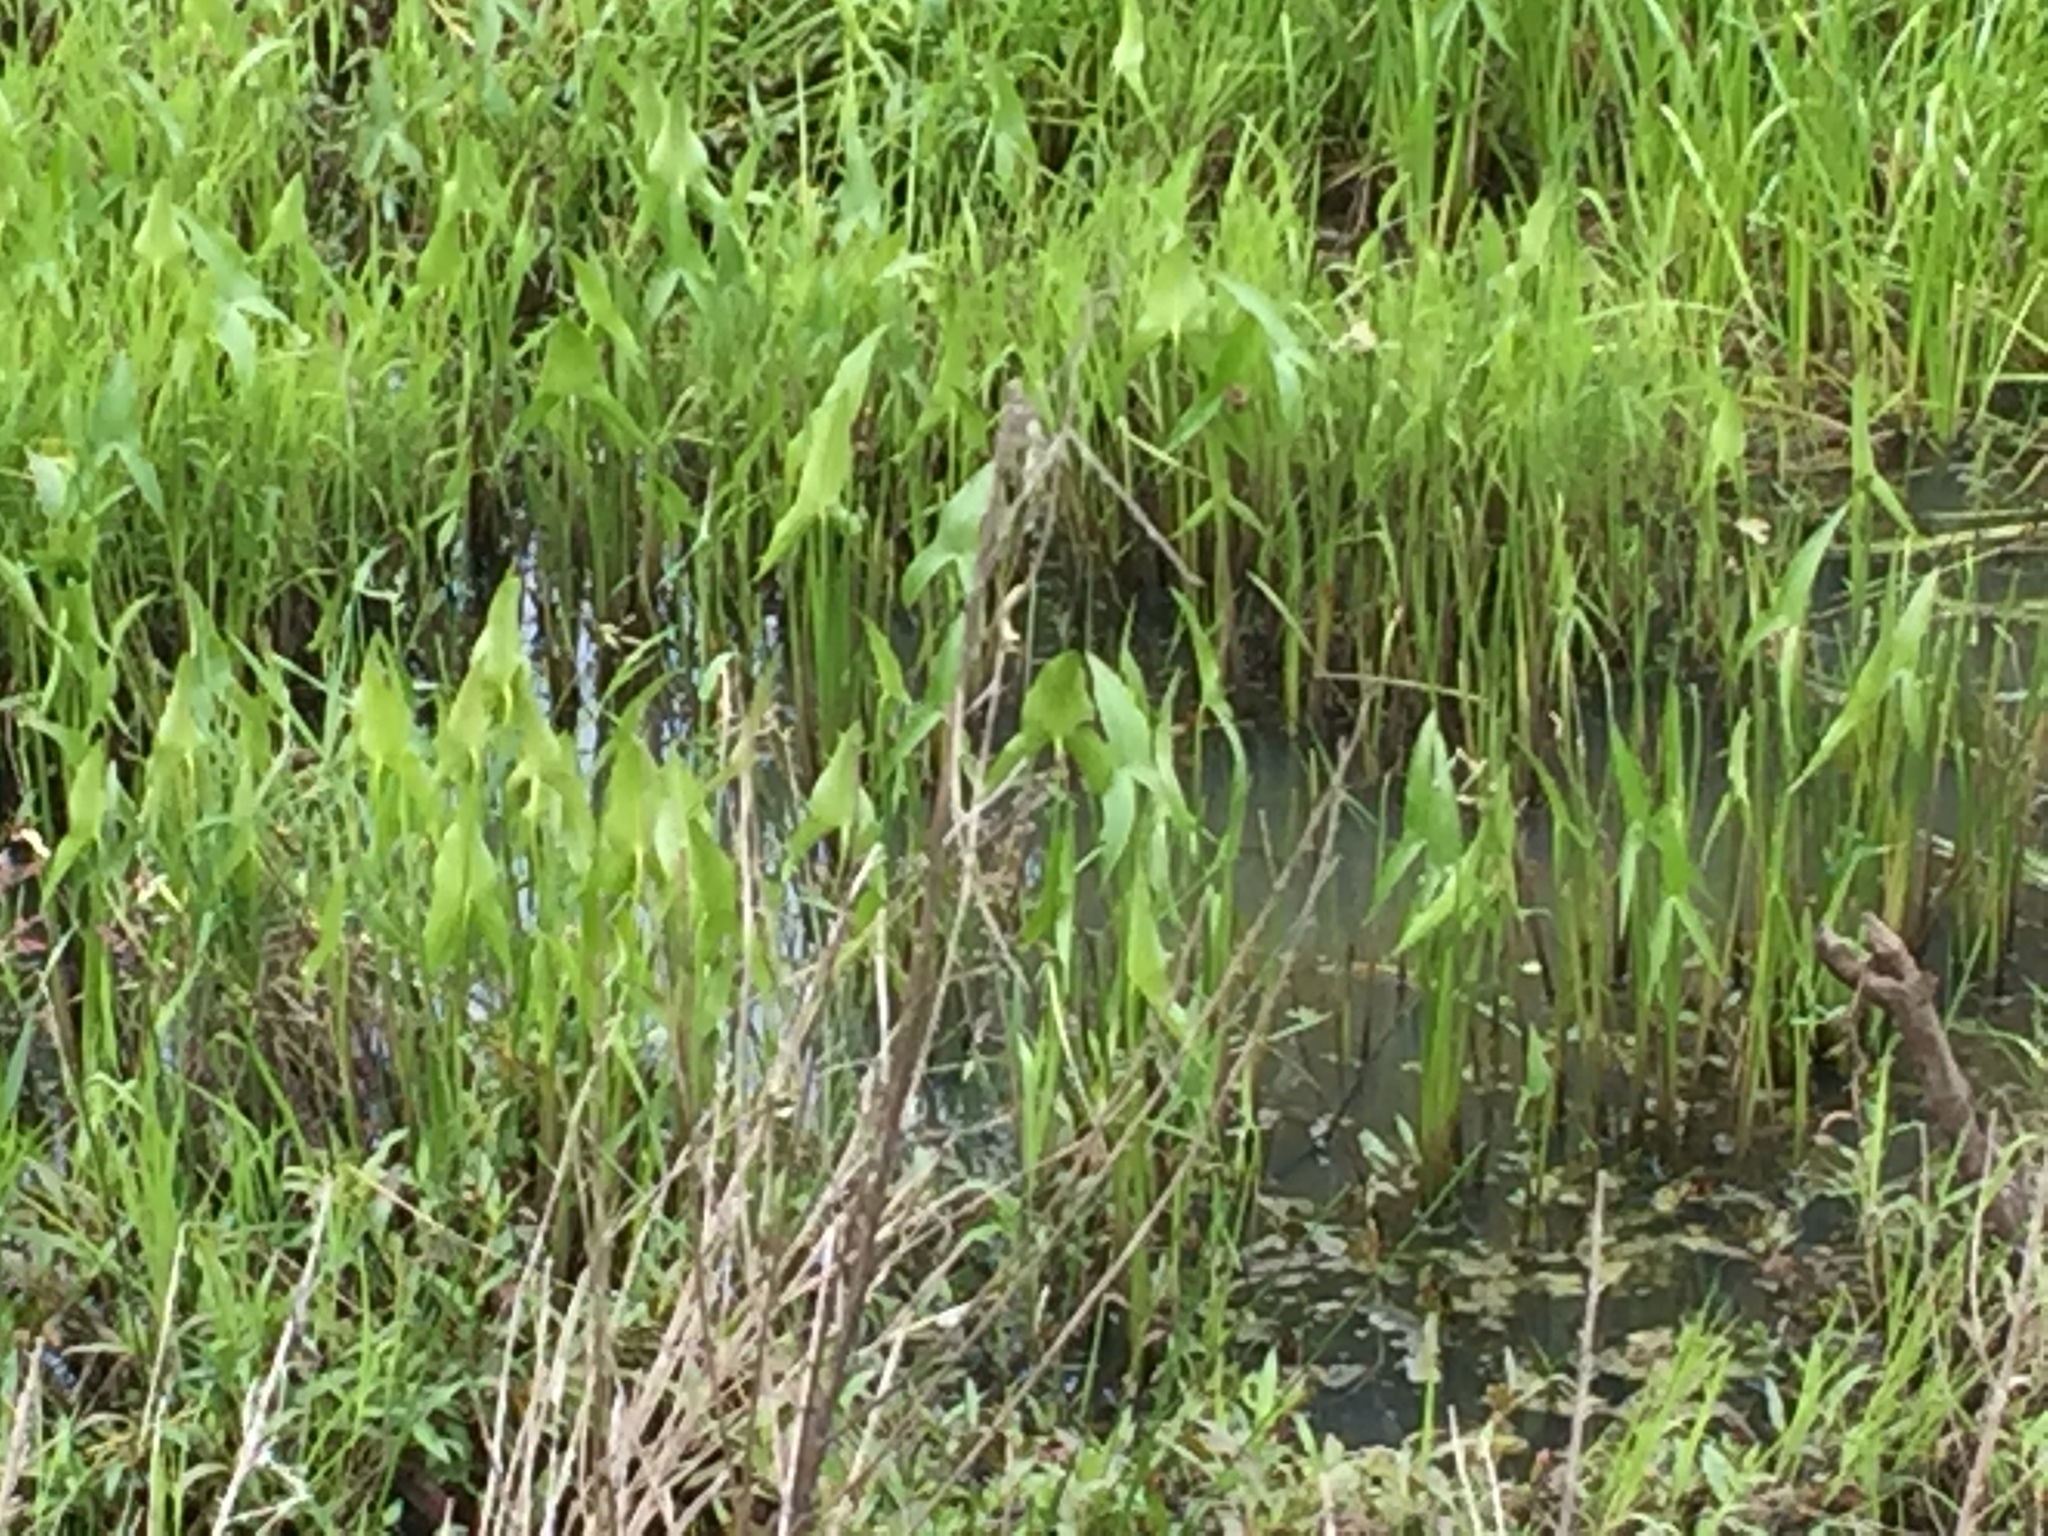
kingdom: Plantae
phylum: Tracheophyta
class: Liliopsida
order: Alismatales
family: Alismataceae
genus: Sagittaria
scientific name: Sagittaria latifolia
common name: Duck-potato
